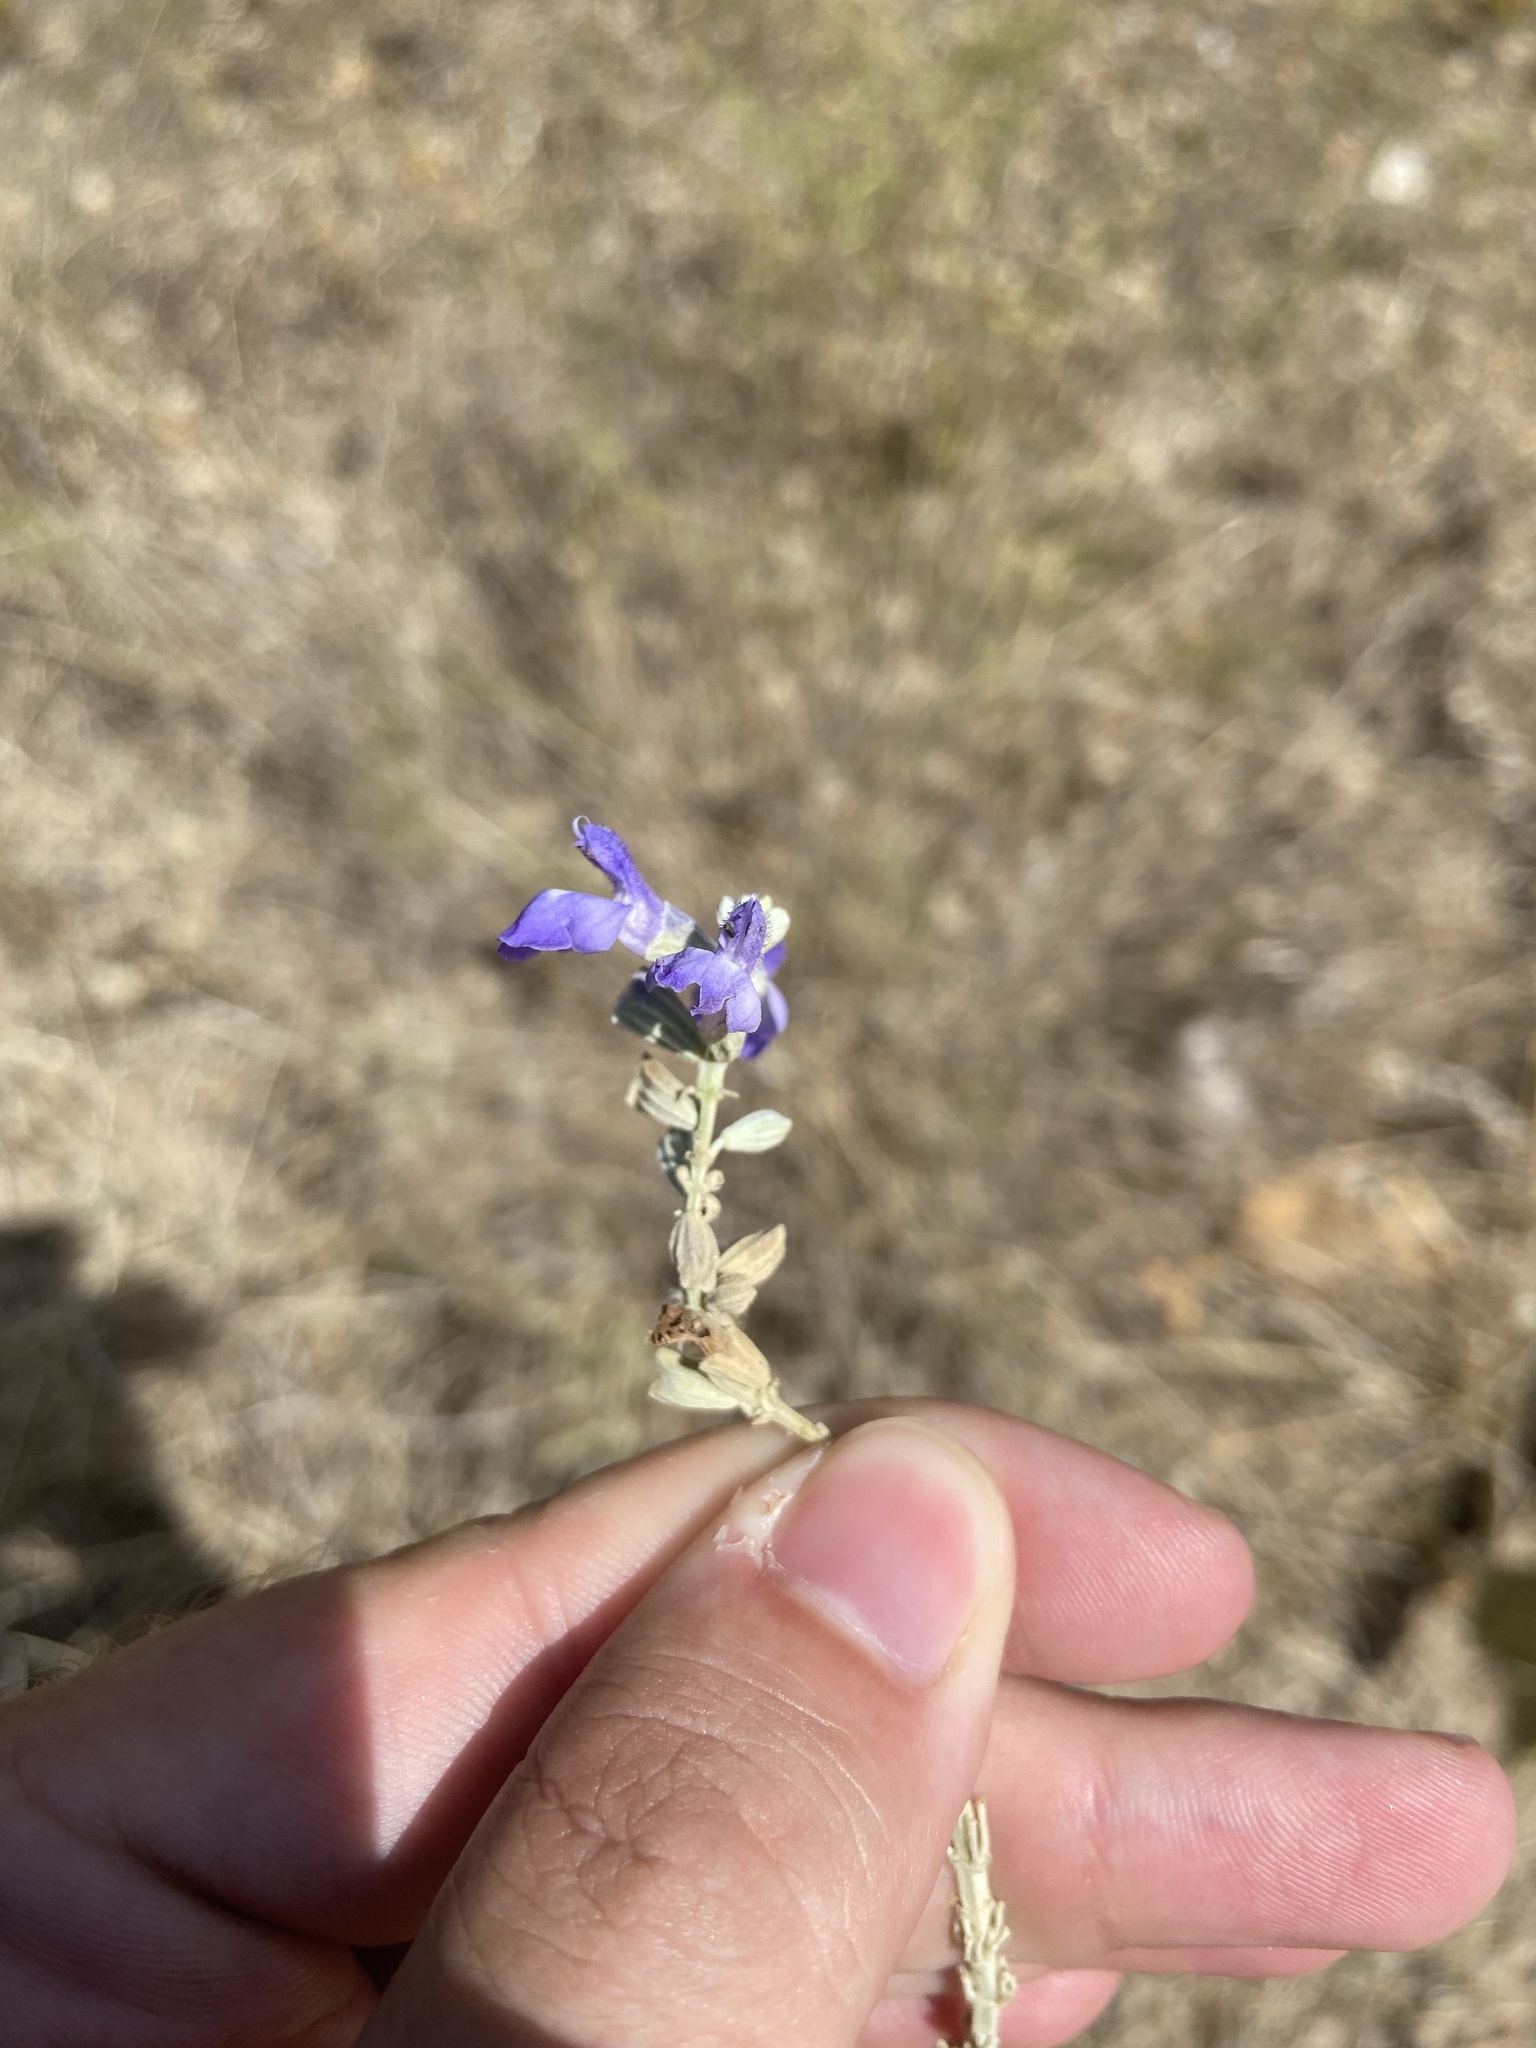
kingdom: Plantae
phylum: Tracheophyta
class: Magnoliopsida
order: Lamiales
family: Lamiaceae
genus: Salvia
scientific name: Salvia farinacea
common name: Mealy sage
